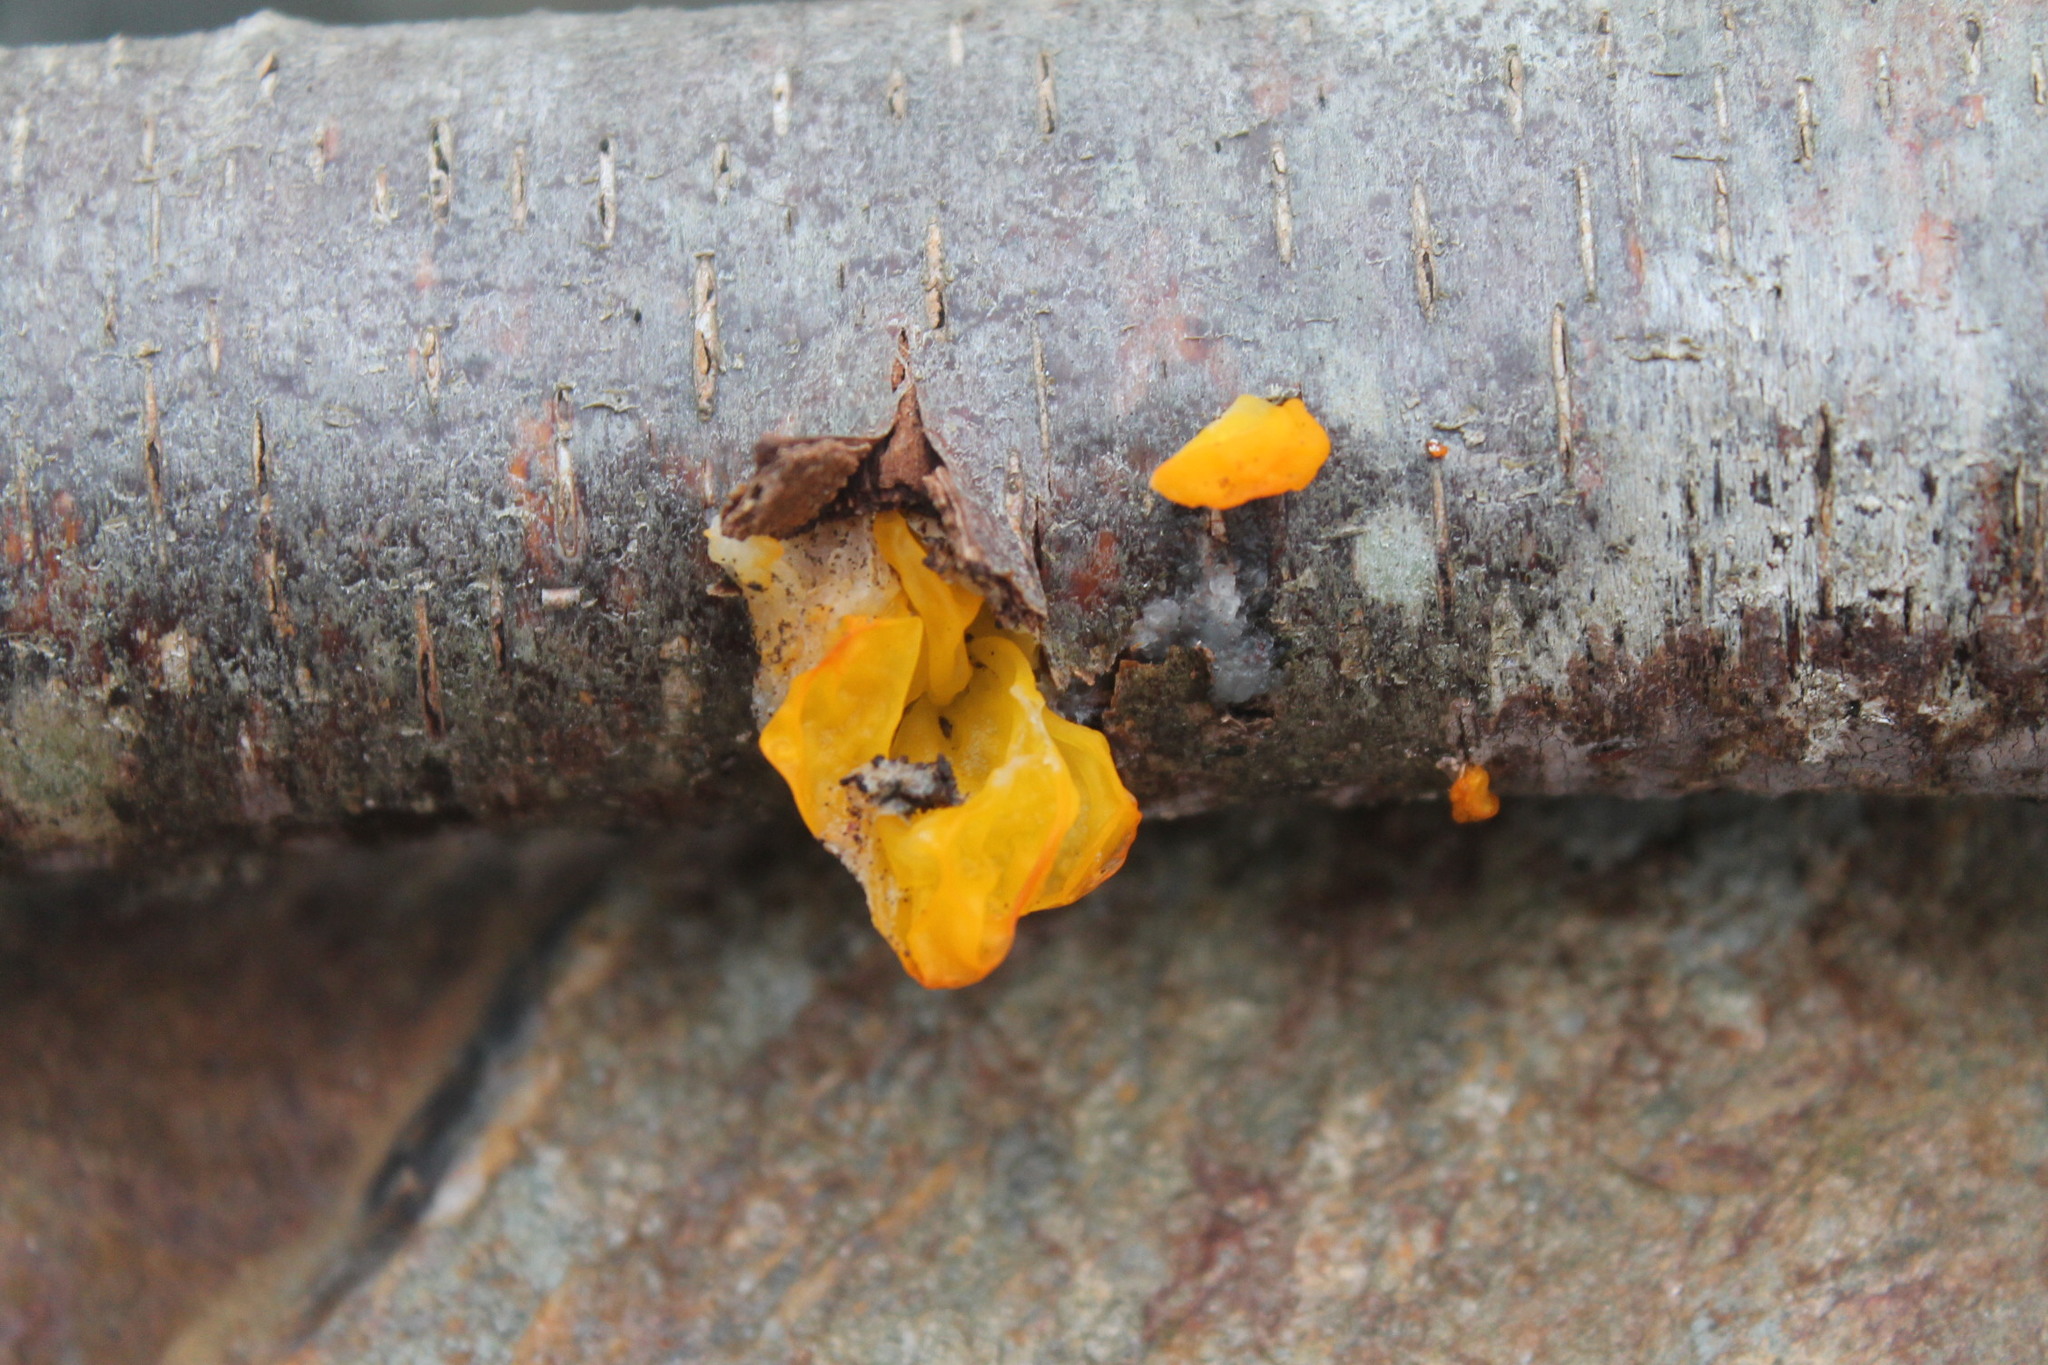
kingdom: Fungi
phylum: Basidiomycota
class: Tremellomycetes
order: Tremellales
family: Tremellaceae
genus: Tremella
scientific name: Tremella mesenterica
